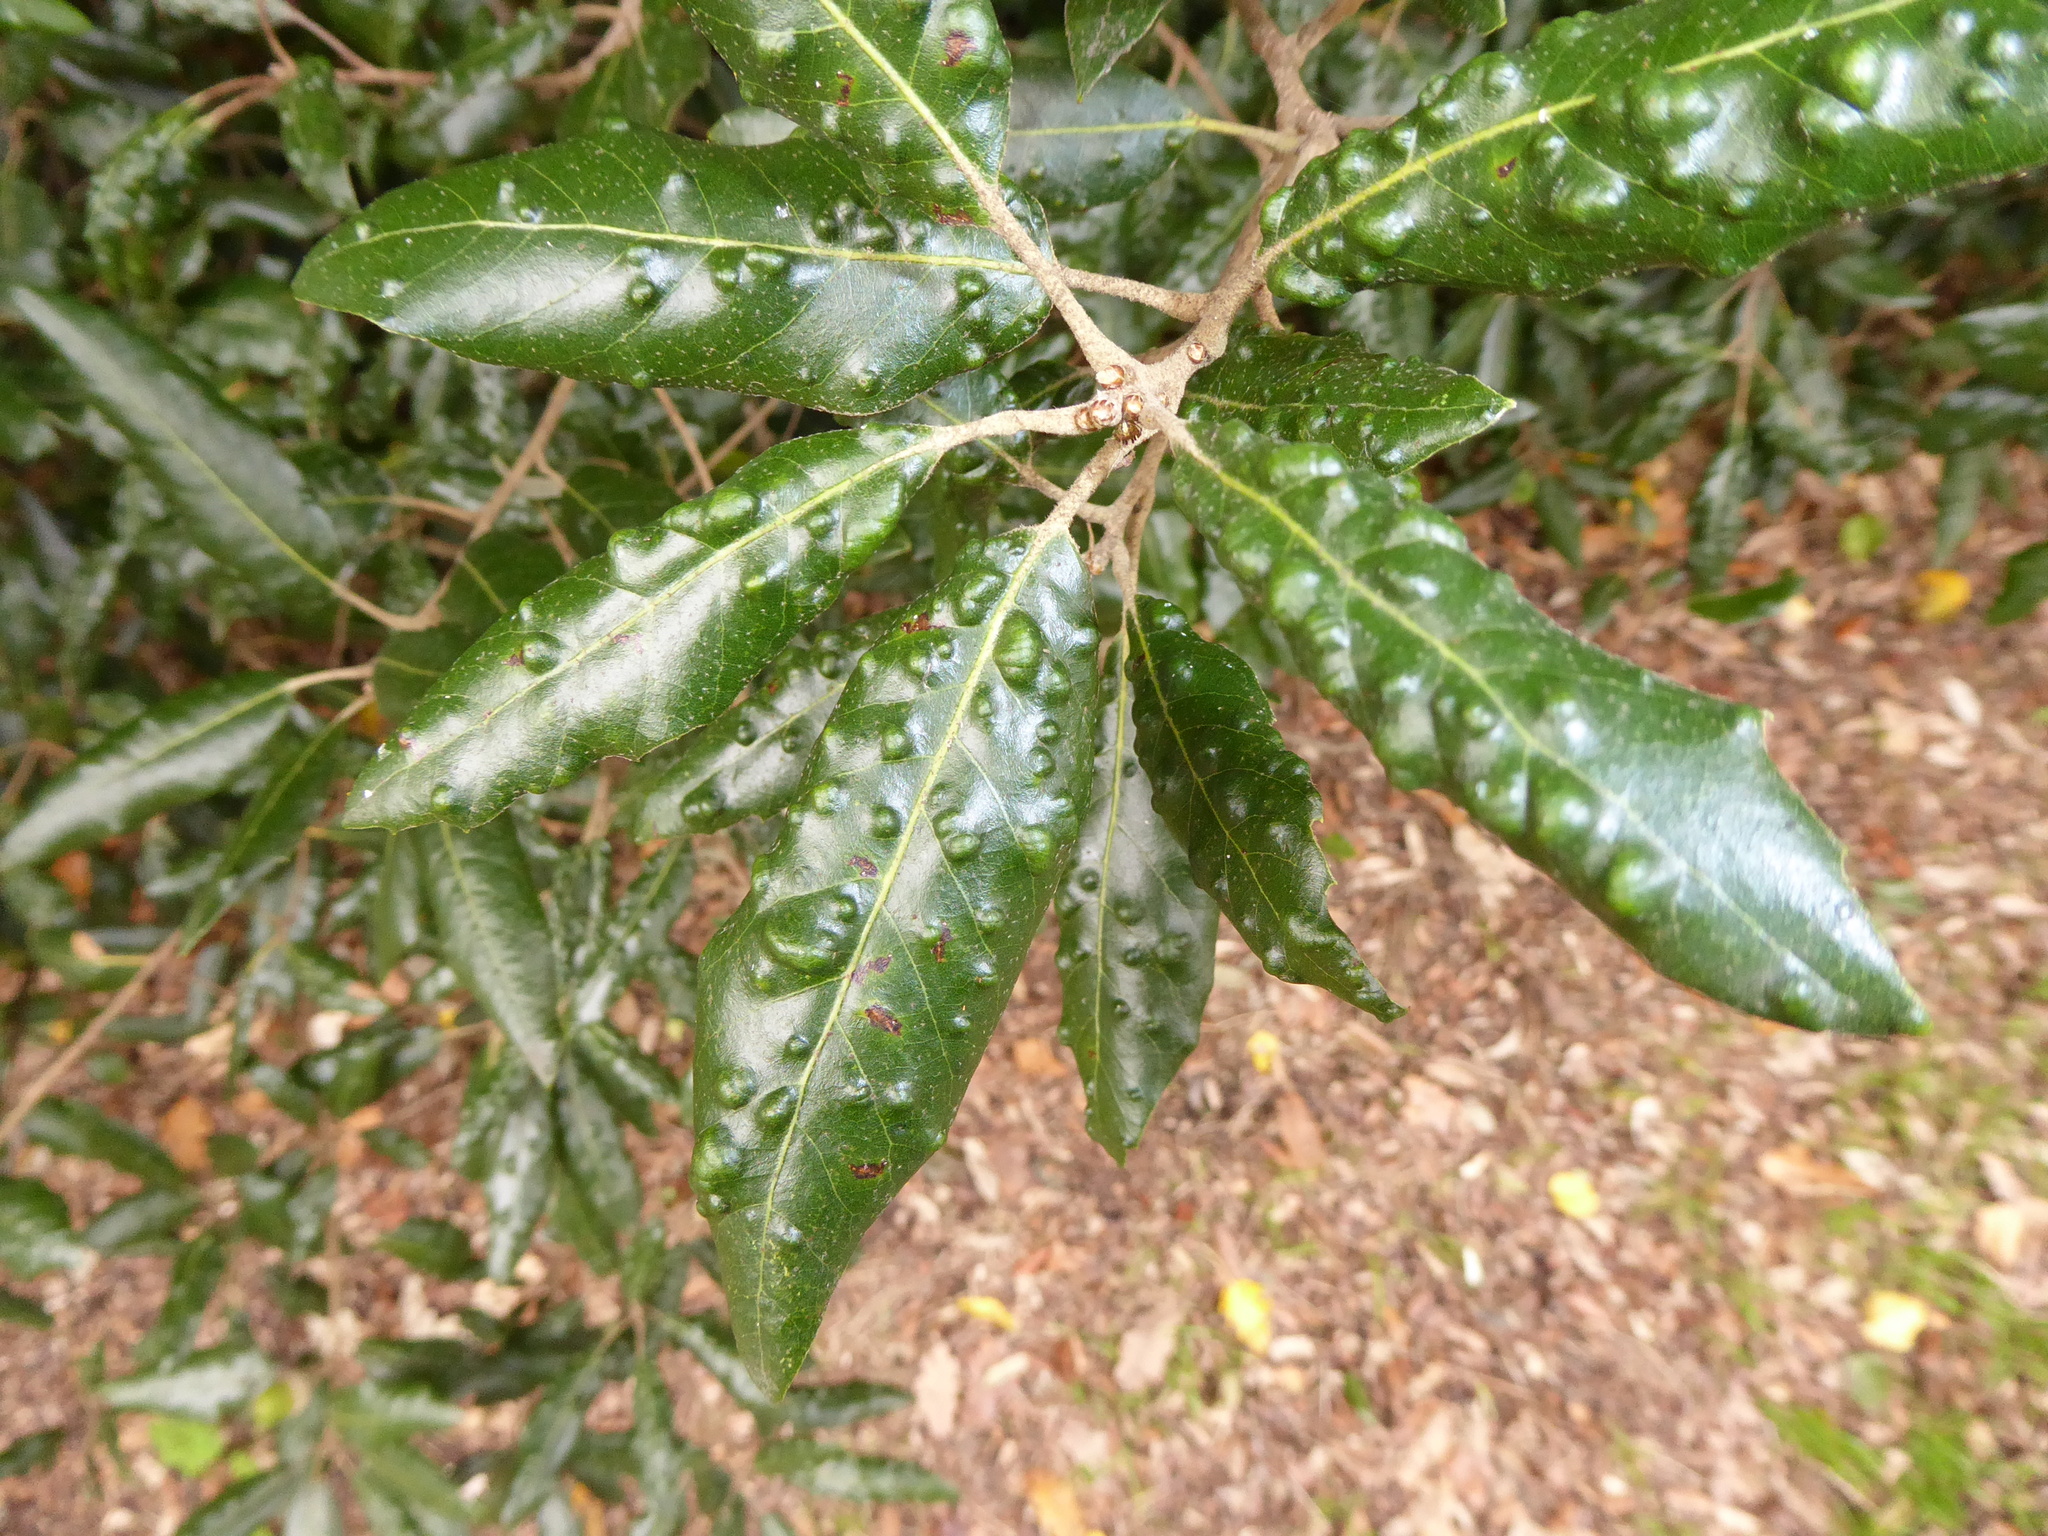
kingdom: Animalia
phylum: Arthropoda
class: Arachnida
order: Trombidiformes
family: Eriophyidae
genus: Aceria
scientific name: Aceria ilicis
